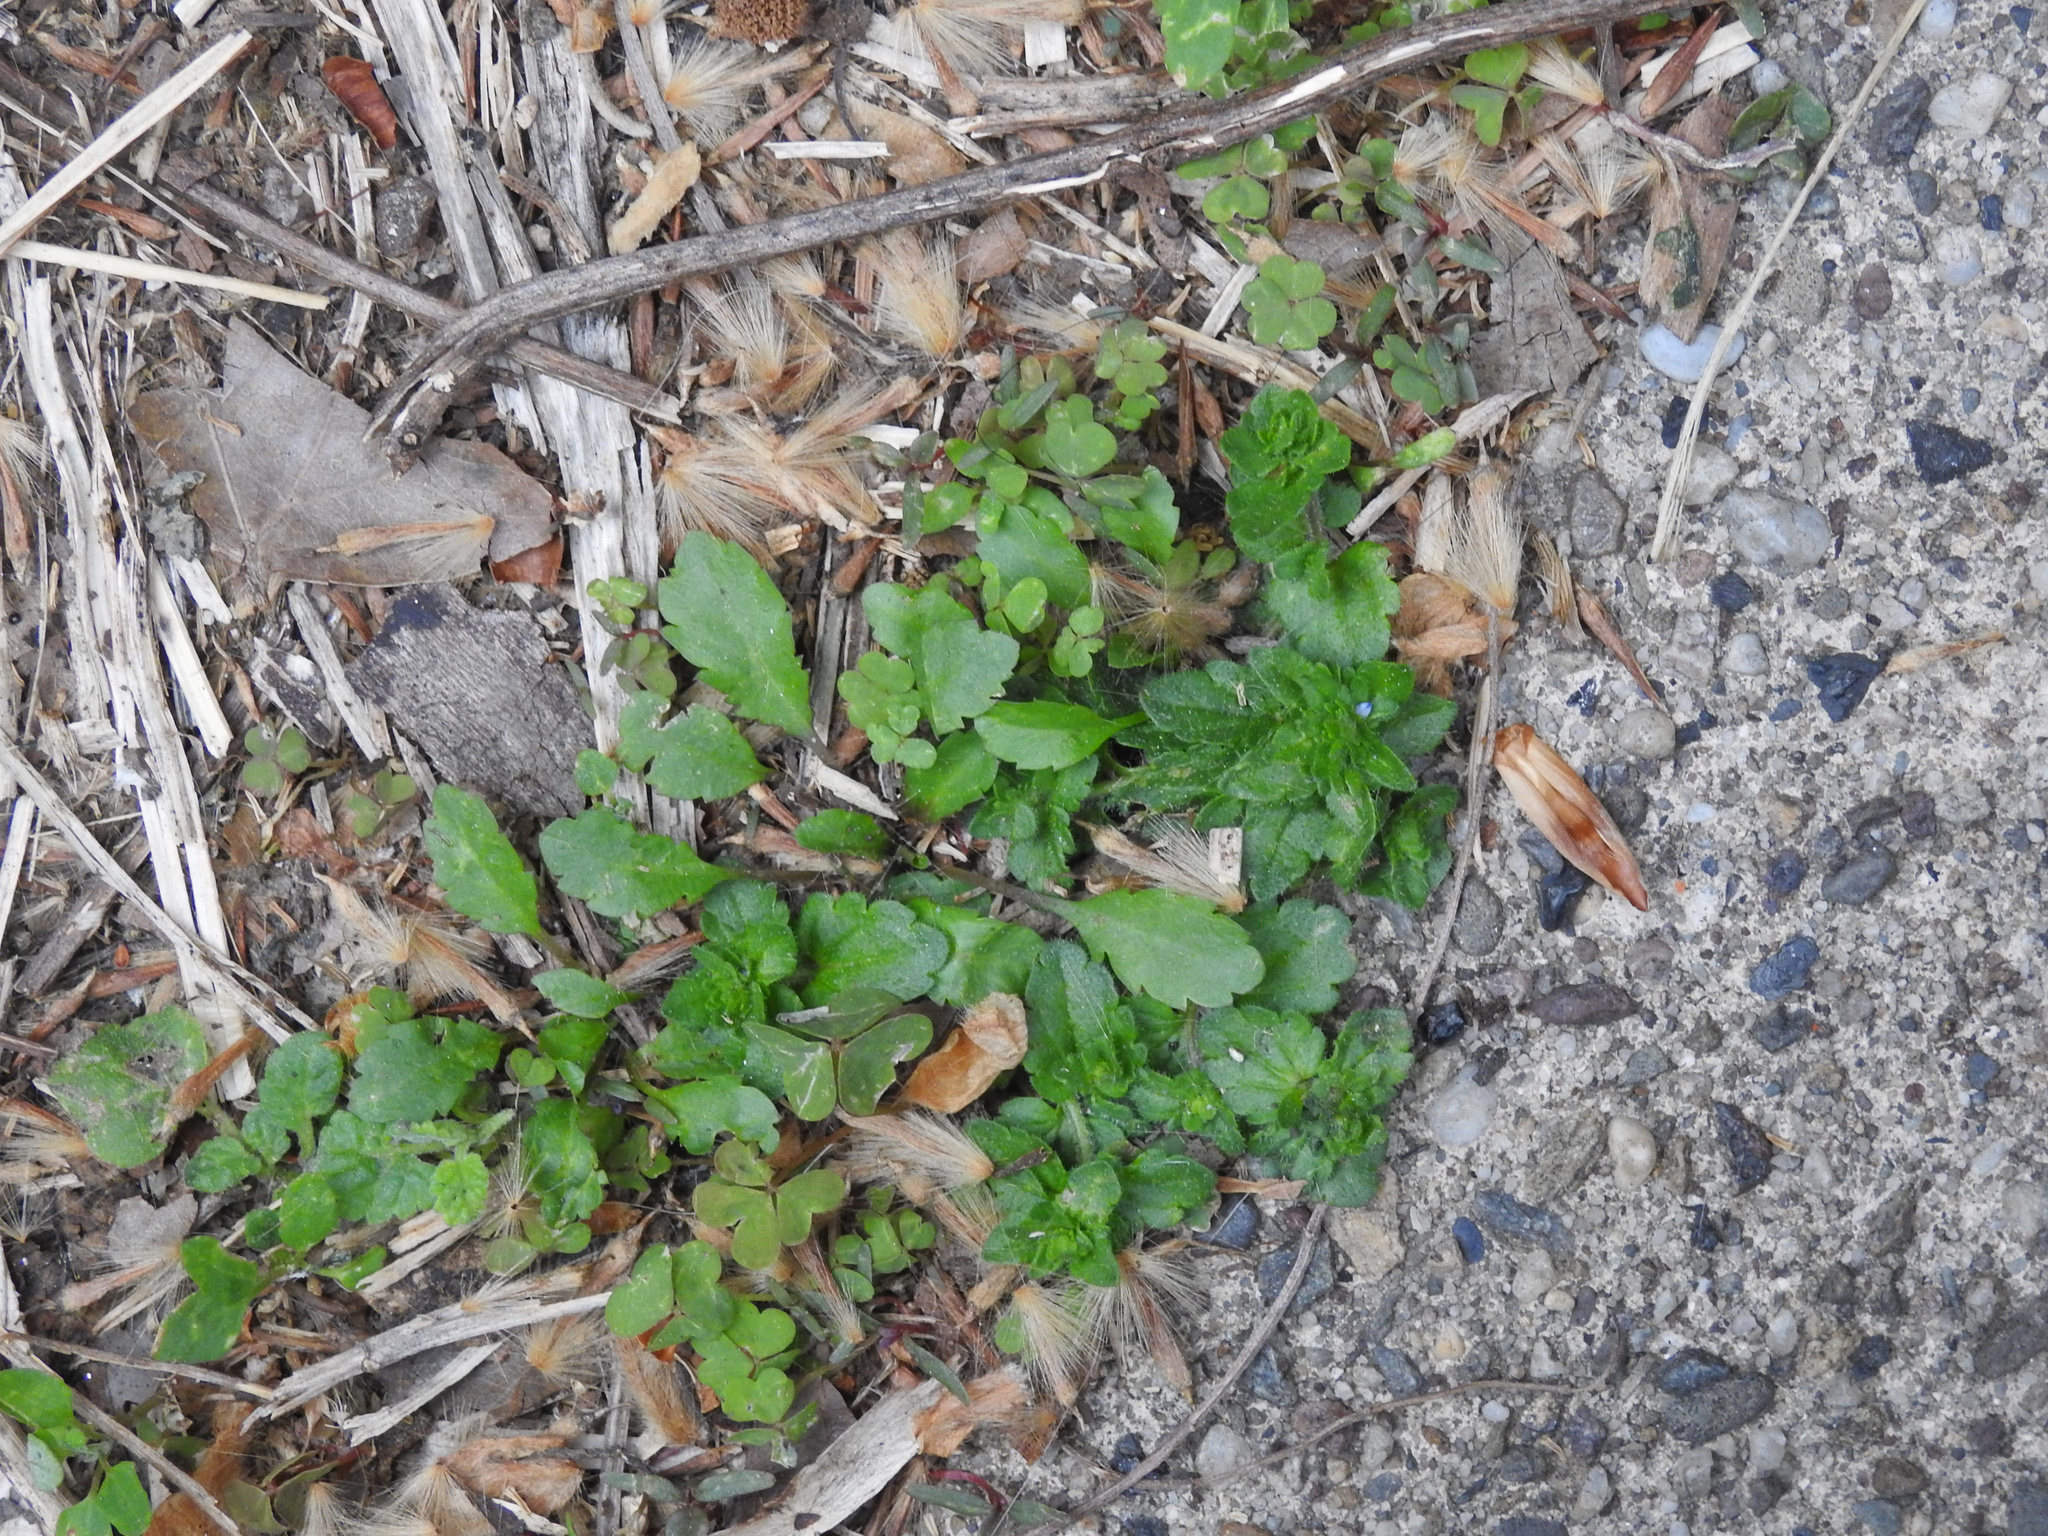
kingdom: Plantae
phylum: Tracheophyta
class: Magnoliopsida
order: Lamiales
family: Plantaginaceae
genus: Veronica
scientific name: Veronica arvensis
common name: Corn speedwell
